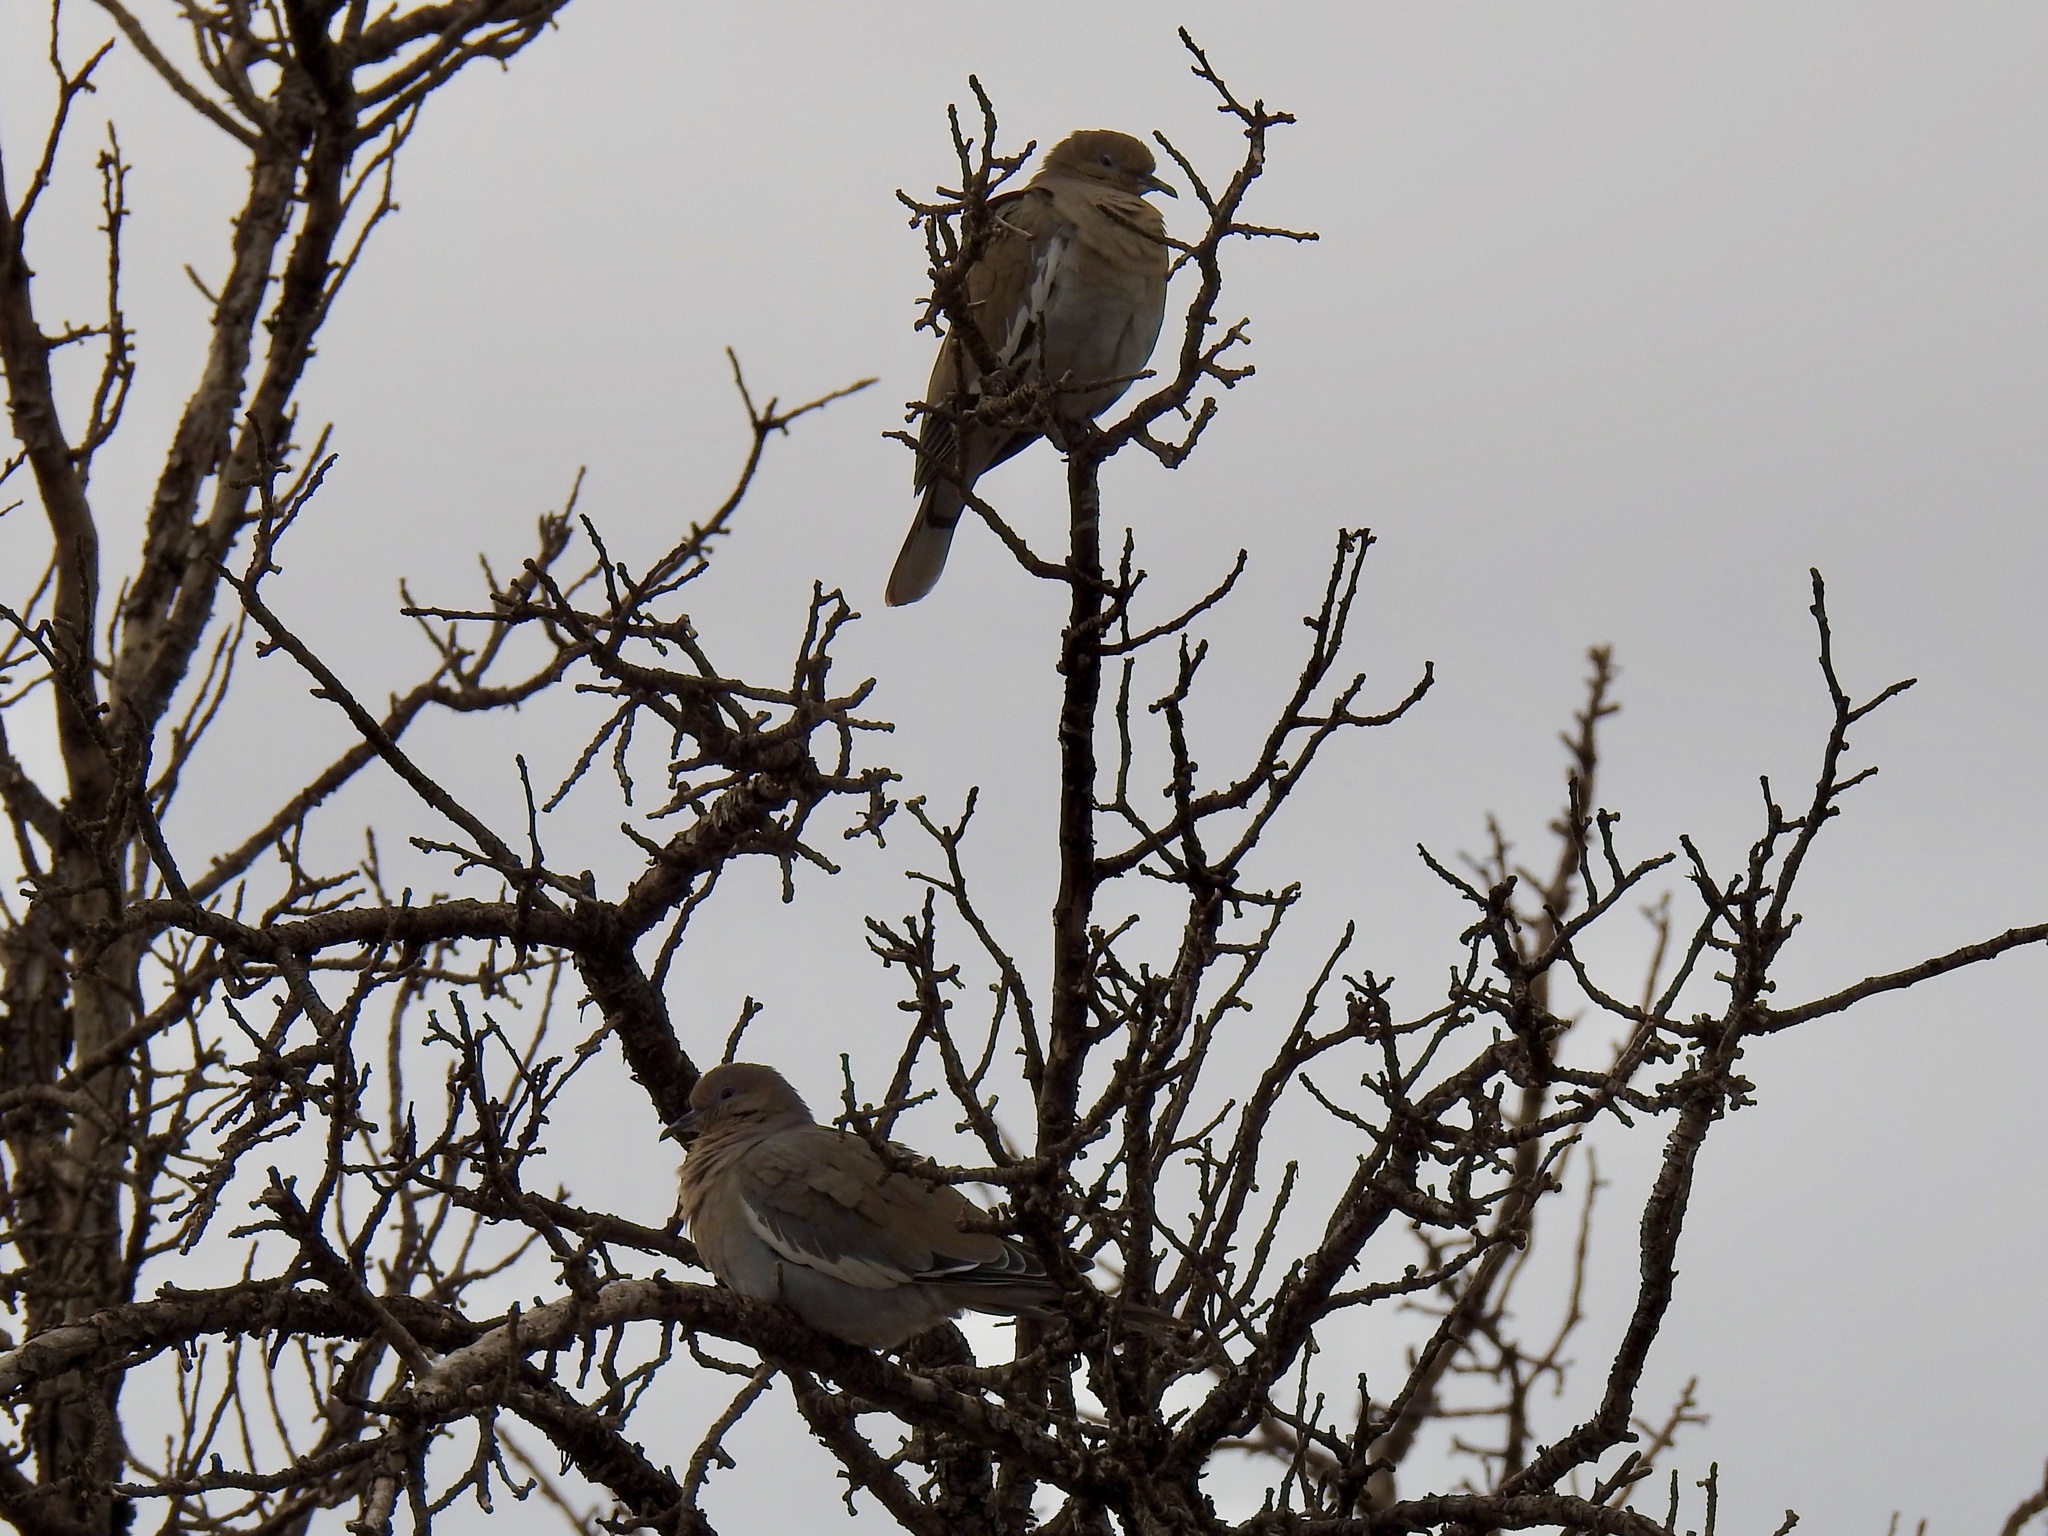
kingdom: Animalia
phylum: Chordata
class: Aves
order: Columbiformes
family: Columbidae
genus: Zenaida
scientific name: Zenaida asiatica
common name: White-winged dove
